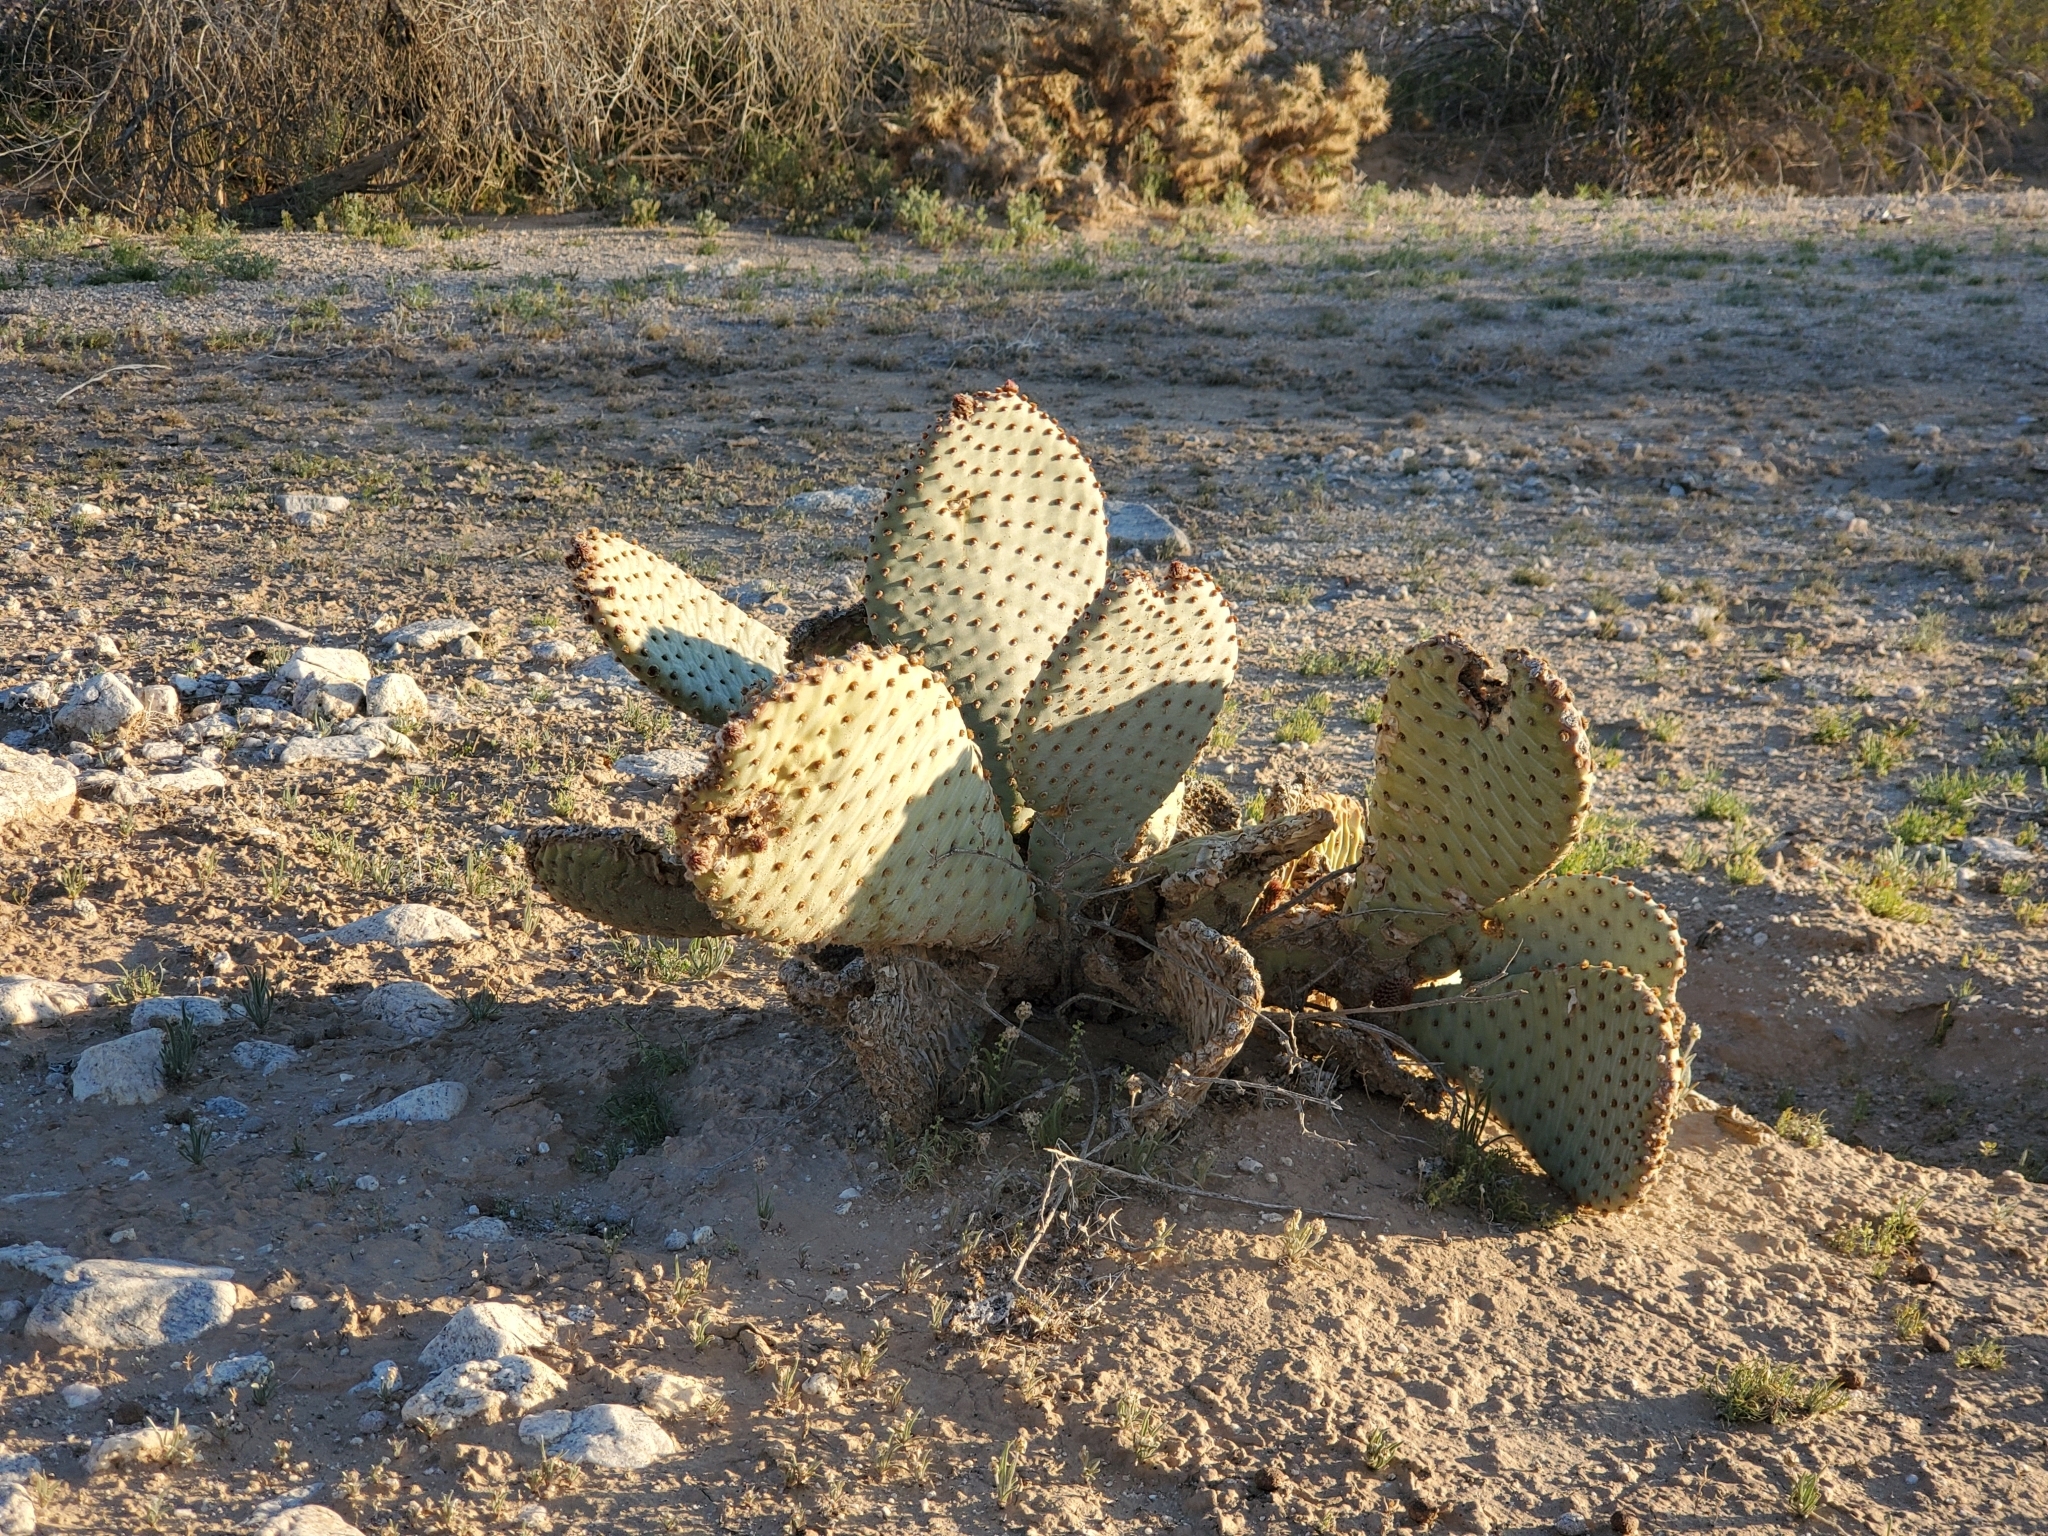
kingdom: Plantae
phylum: Tracheophyta
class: Magnoliopsida
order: Caryophyllales
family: Cactaceae
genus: Opuntia
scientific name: Opuntia basilaris
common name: Beavertail prickly-pear
